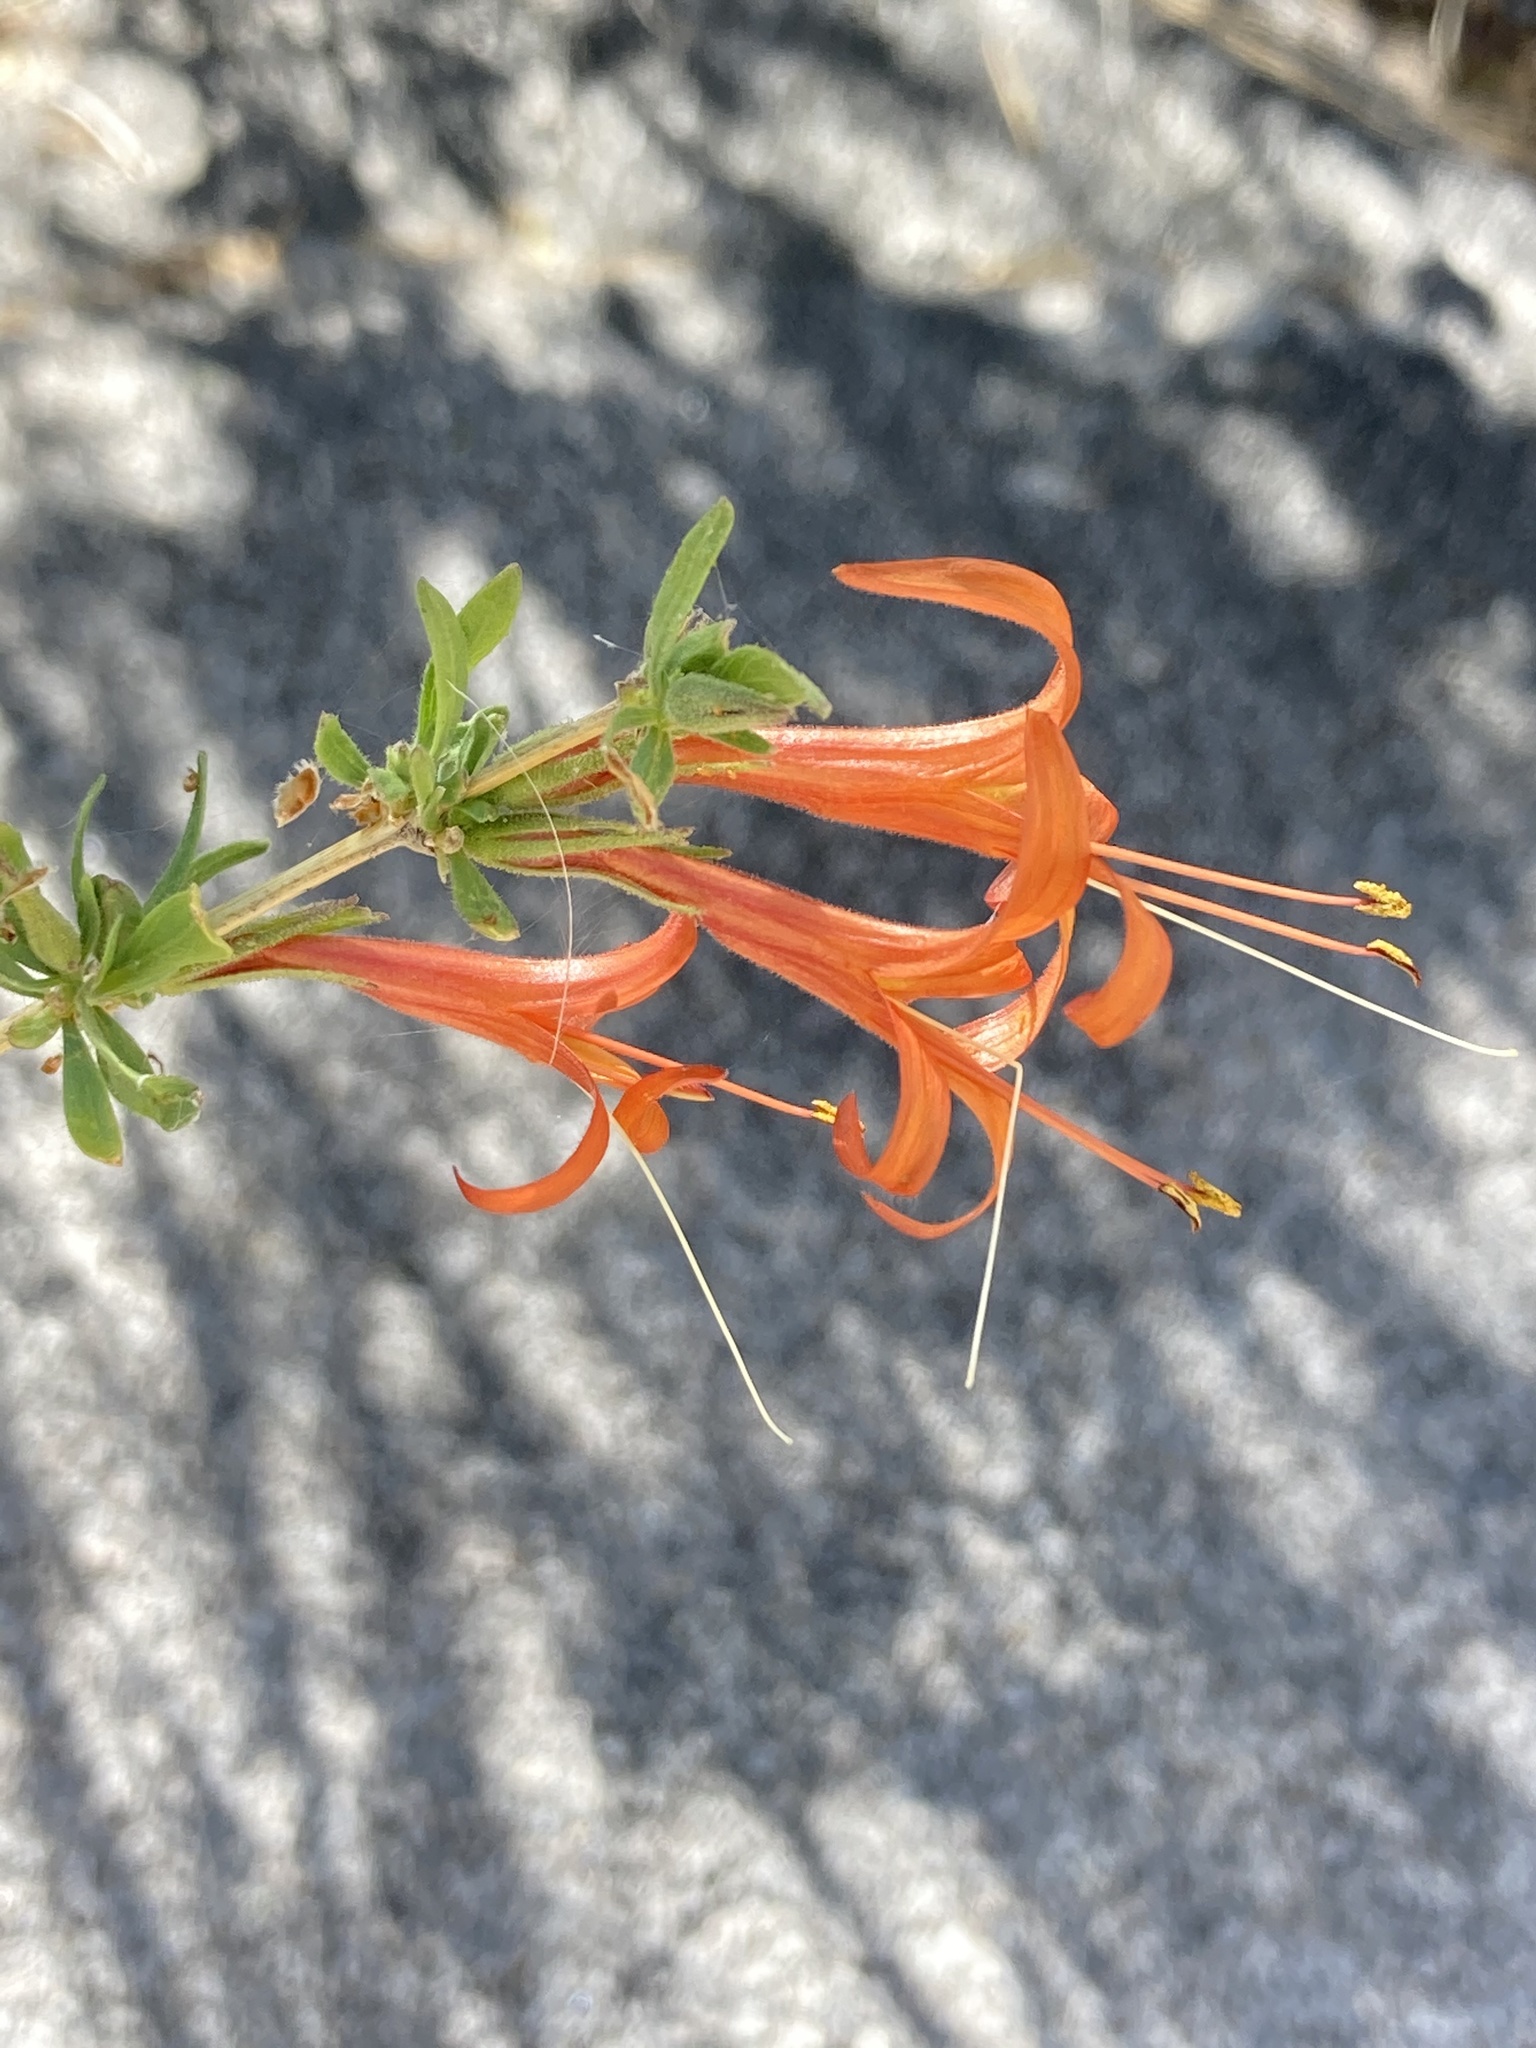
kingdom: Plantae
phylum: Tracheophyta
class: Magnoliopsida
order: Lamiales
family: Acanthaceae
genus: Anisacanthus
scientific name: Anisacanthus thurberi
